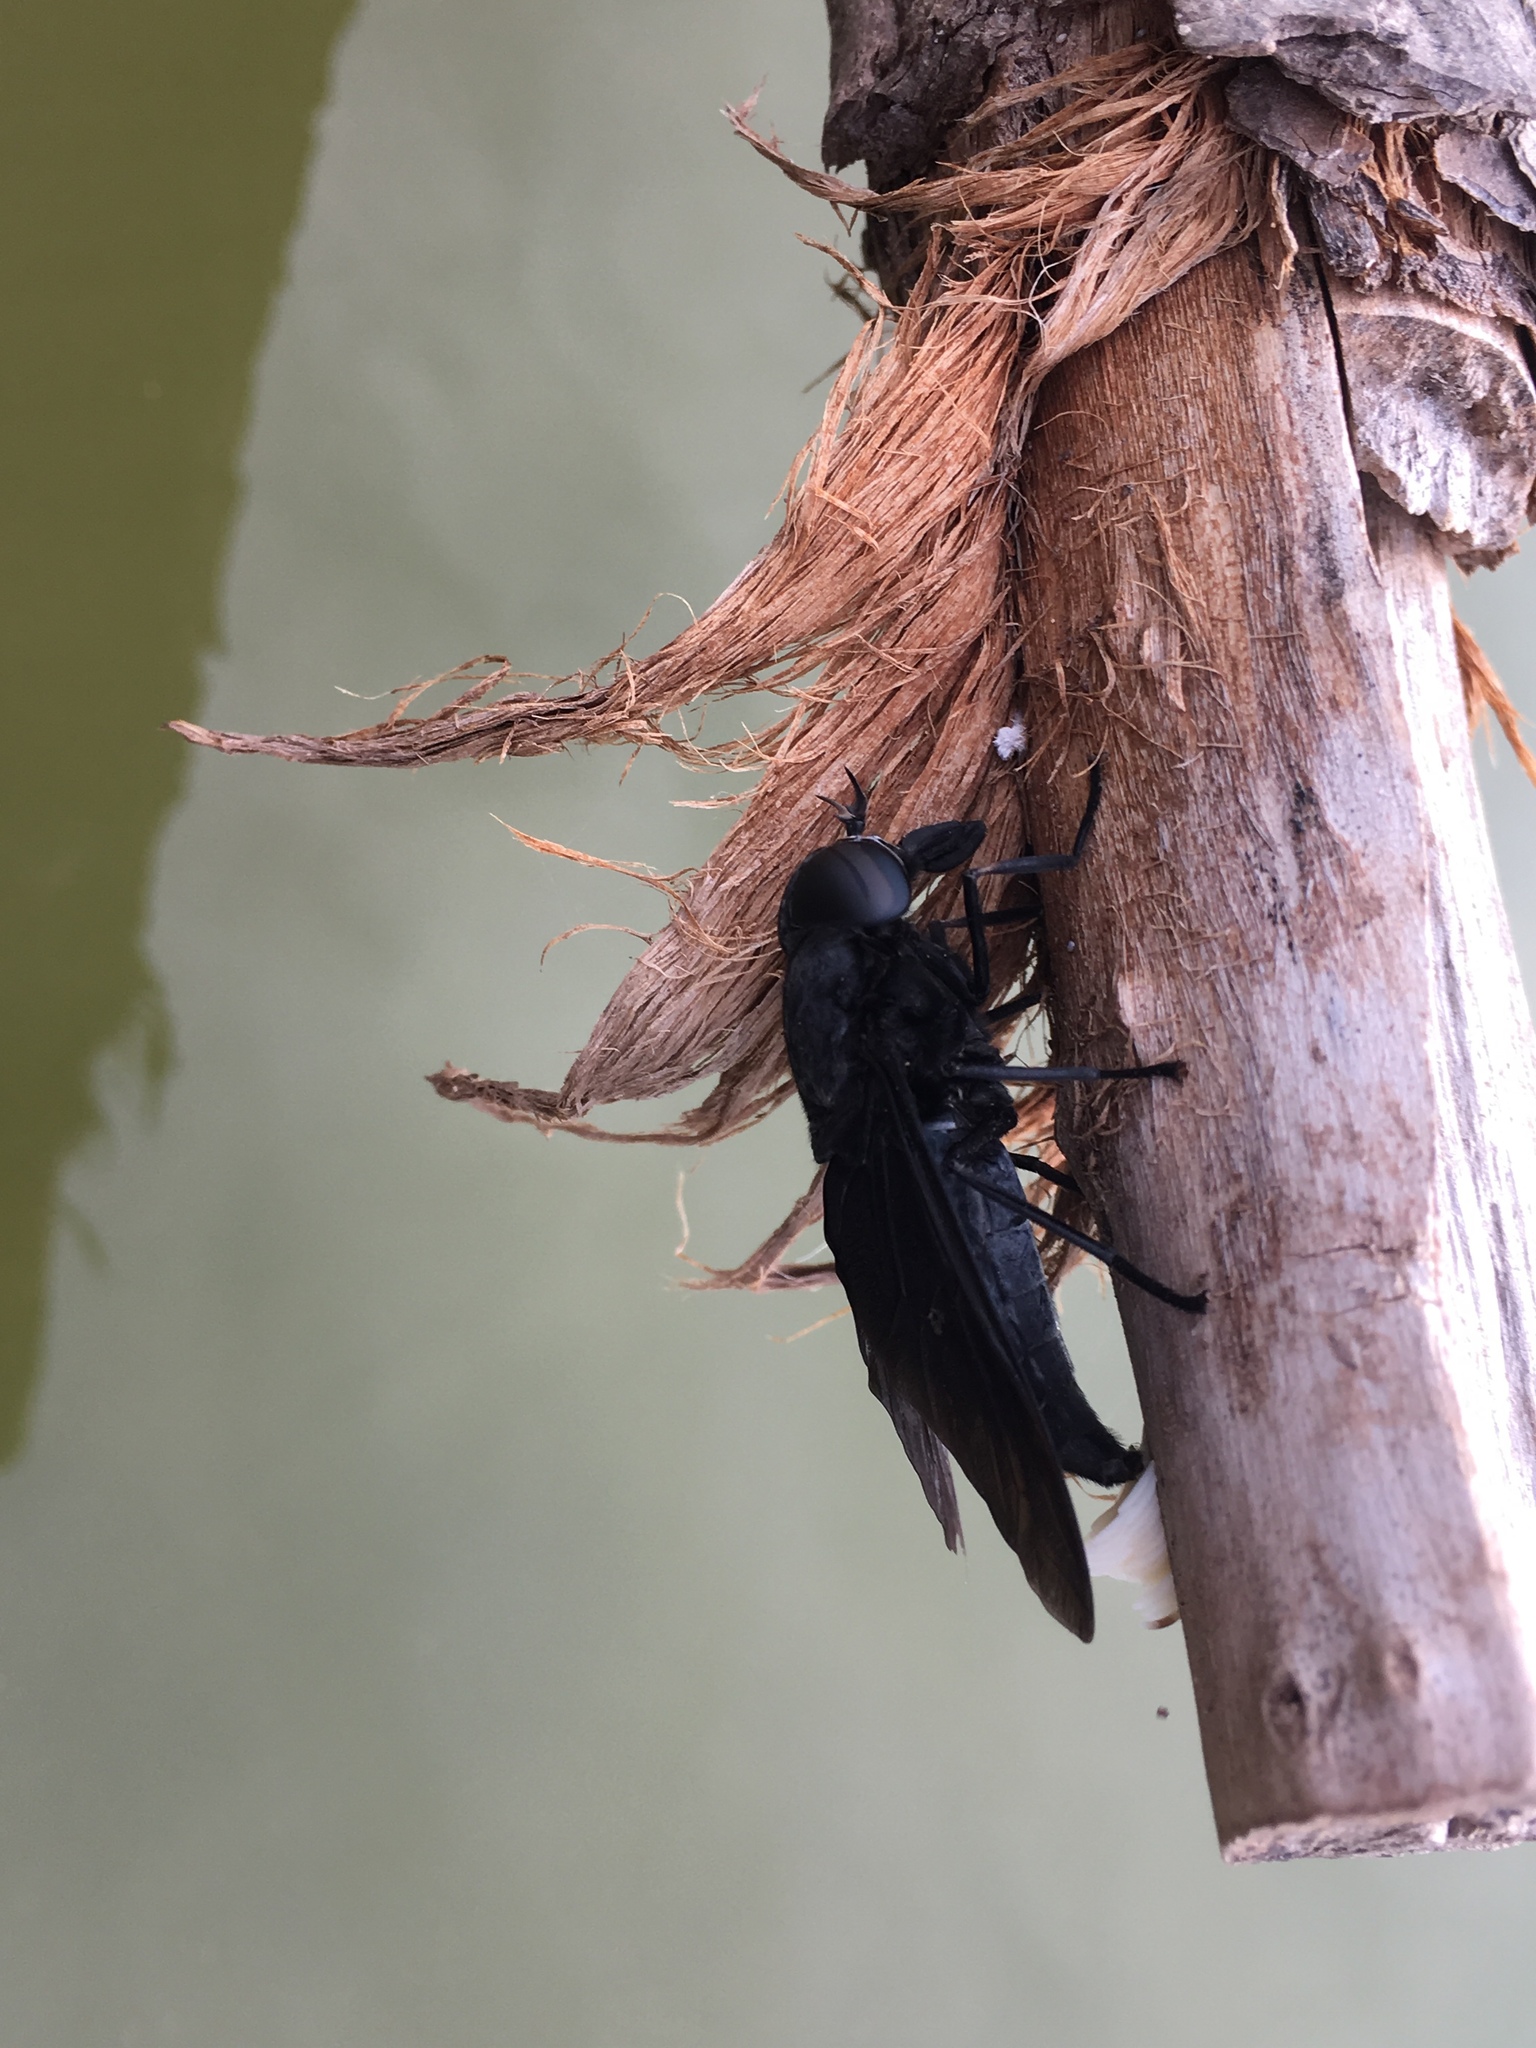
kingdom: Animalia
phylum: Arthropoda
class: Insecta
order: Diptera
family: Tabanidae
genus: Tabanus
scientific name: Tabanus atratus
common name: Black horse fly
